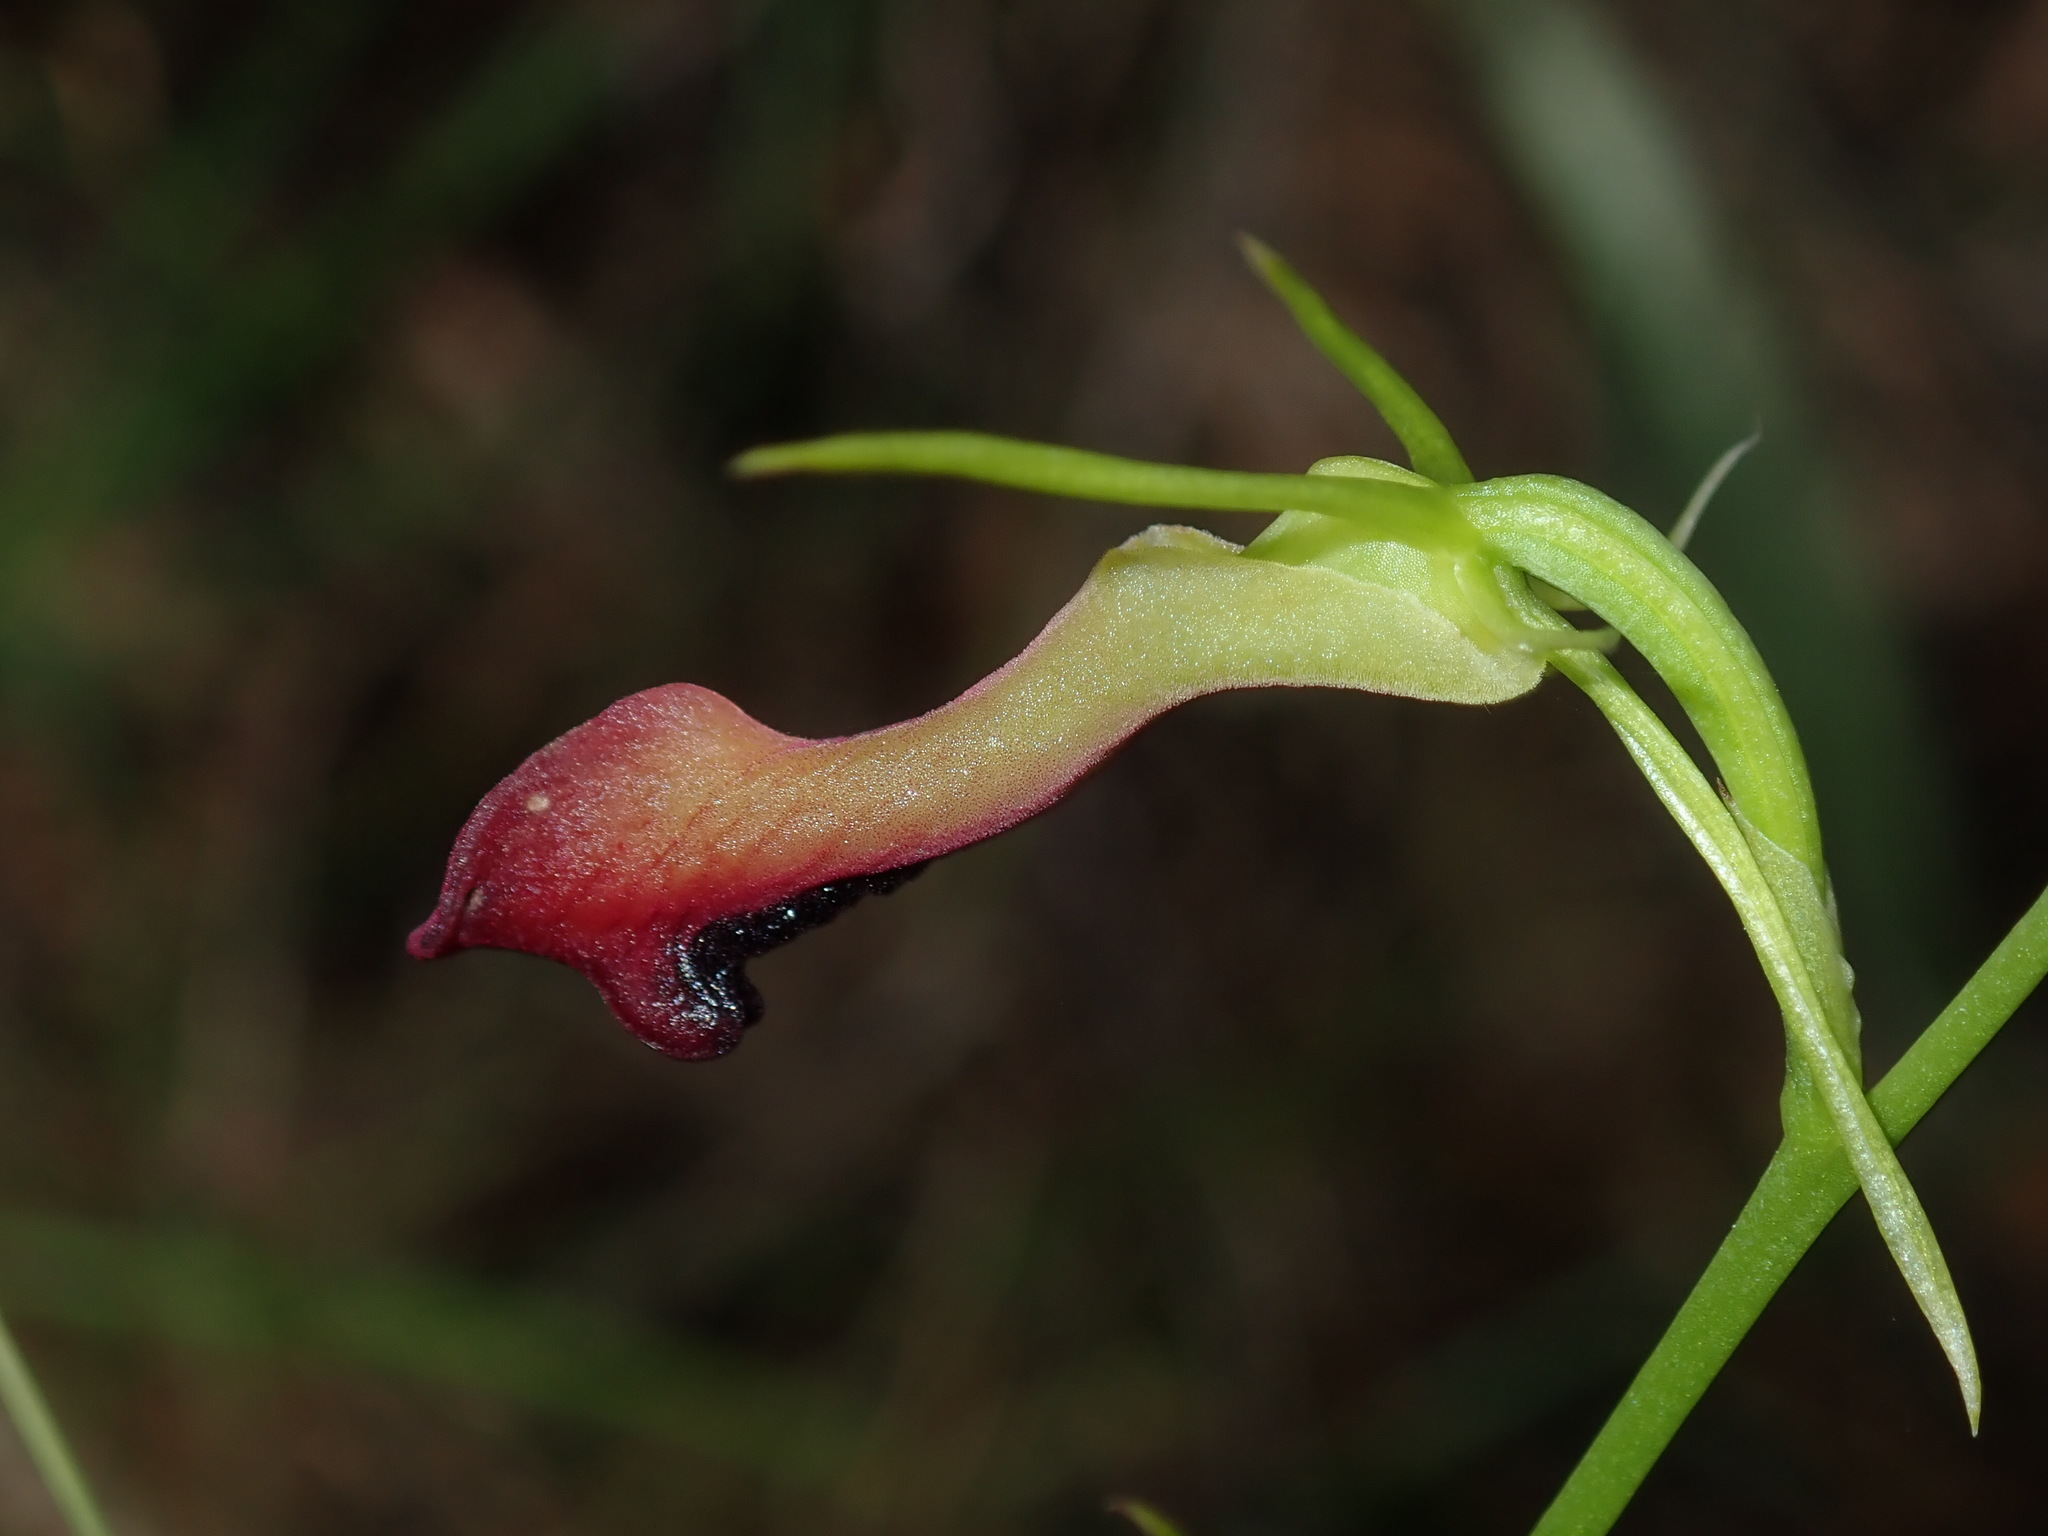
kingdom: Plantae
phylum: Tracheophyta
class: Liliopsida
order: Asparagales
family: Orchidaceae
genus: Cryptostylis
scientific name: Cryptostylis subulata
